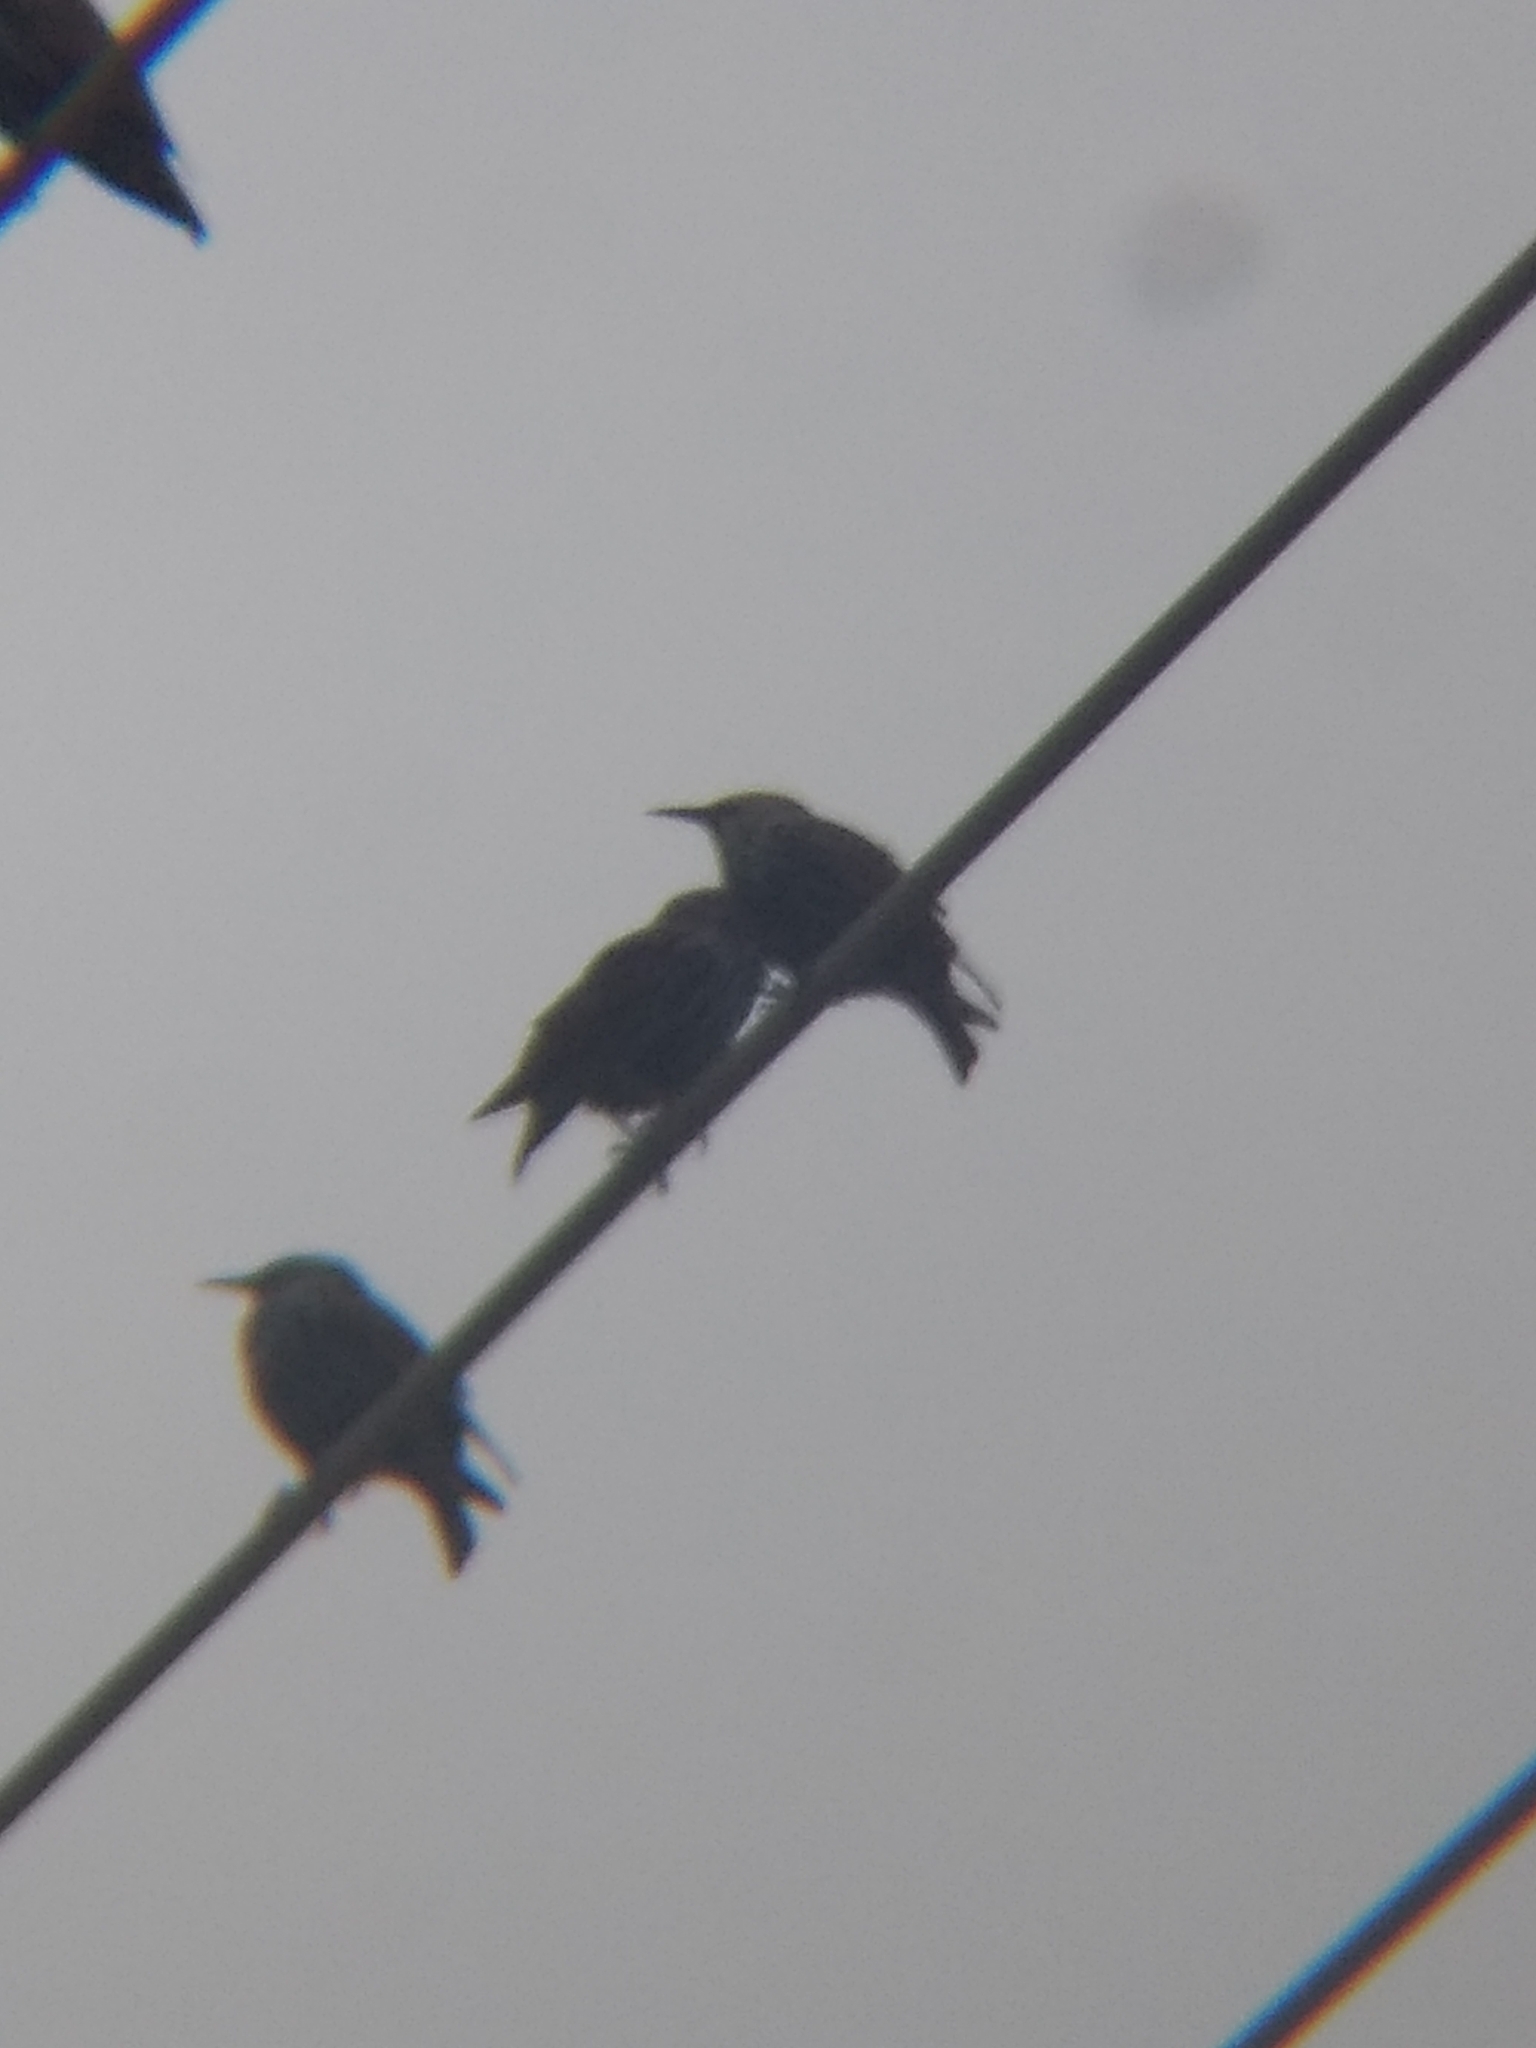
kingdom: Animalia
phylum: Chordata
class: Aves
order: Passeriformes
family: Sturnidae
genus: Sturnus
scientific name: Sturnus vulgaris
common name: Common starling
